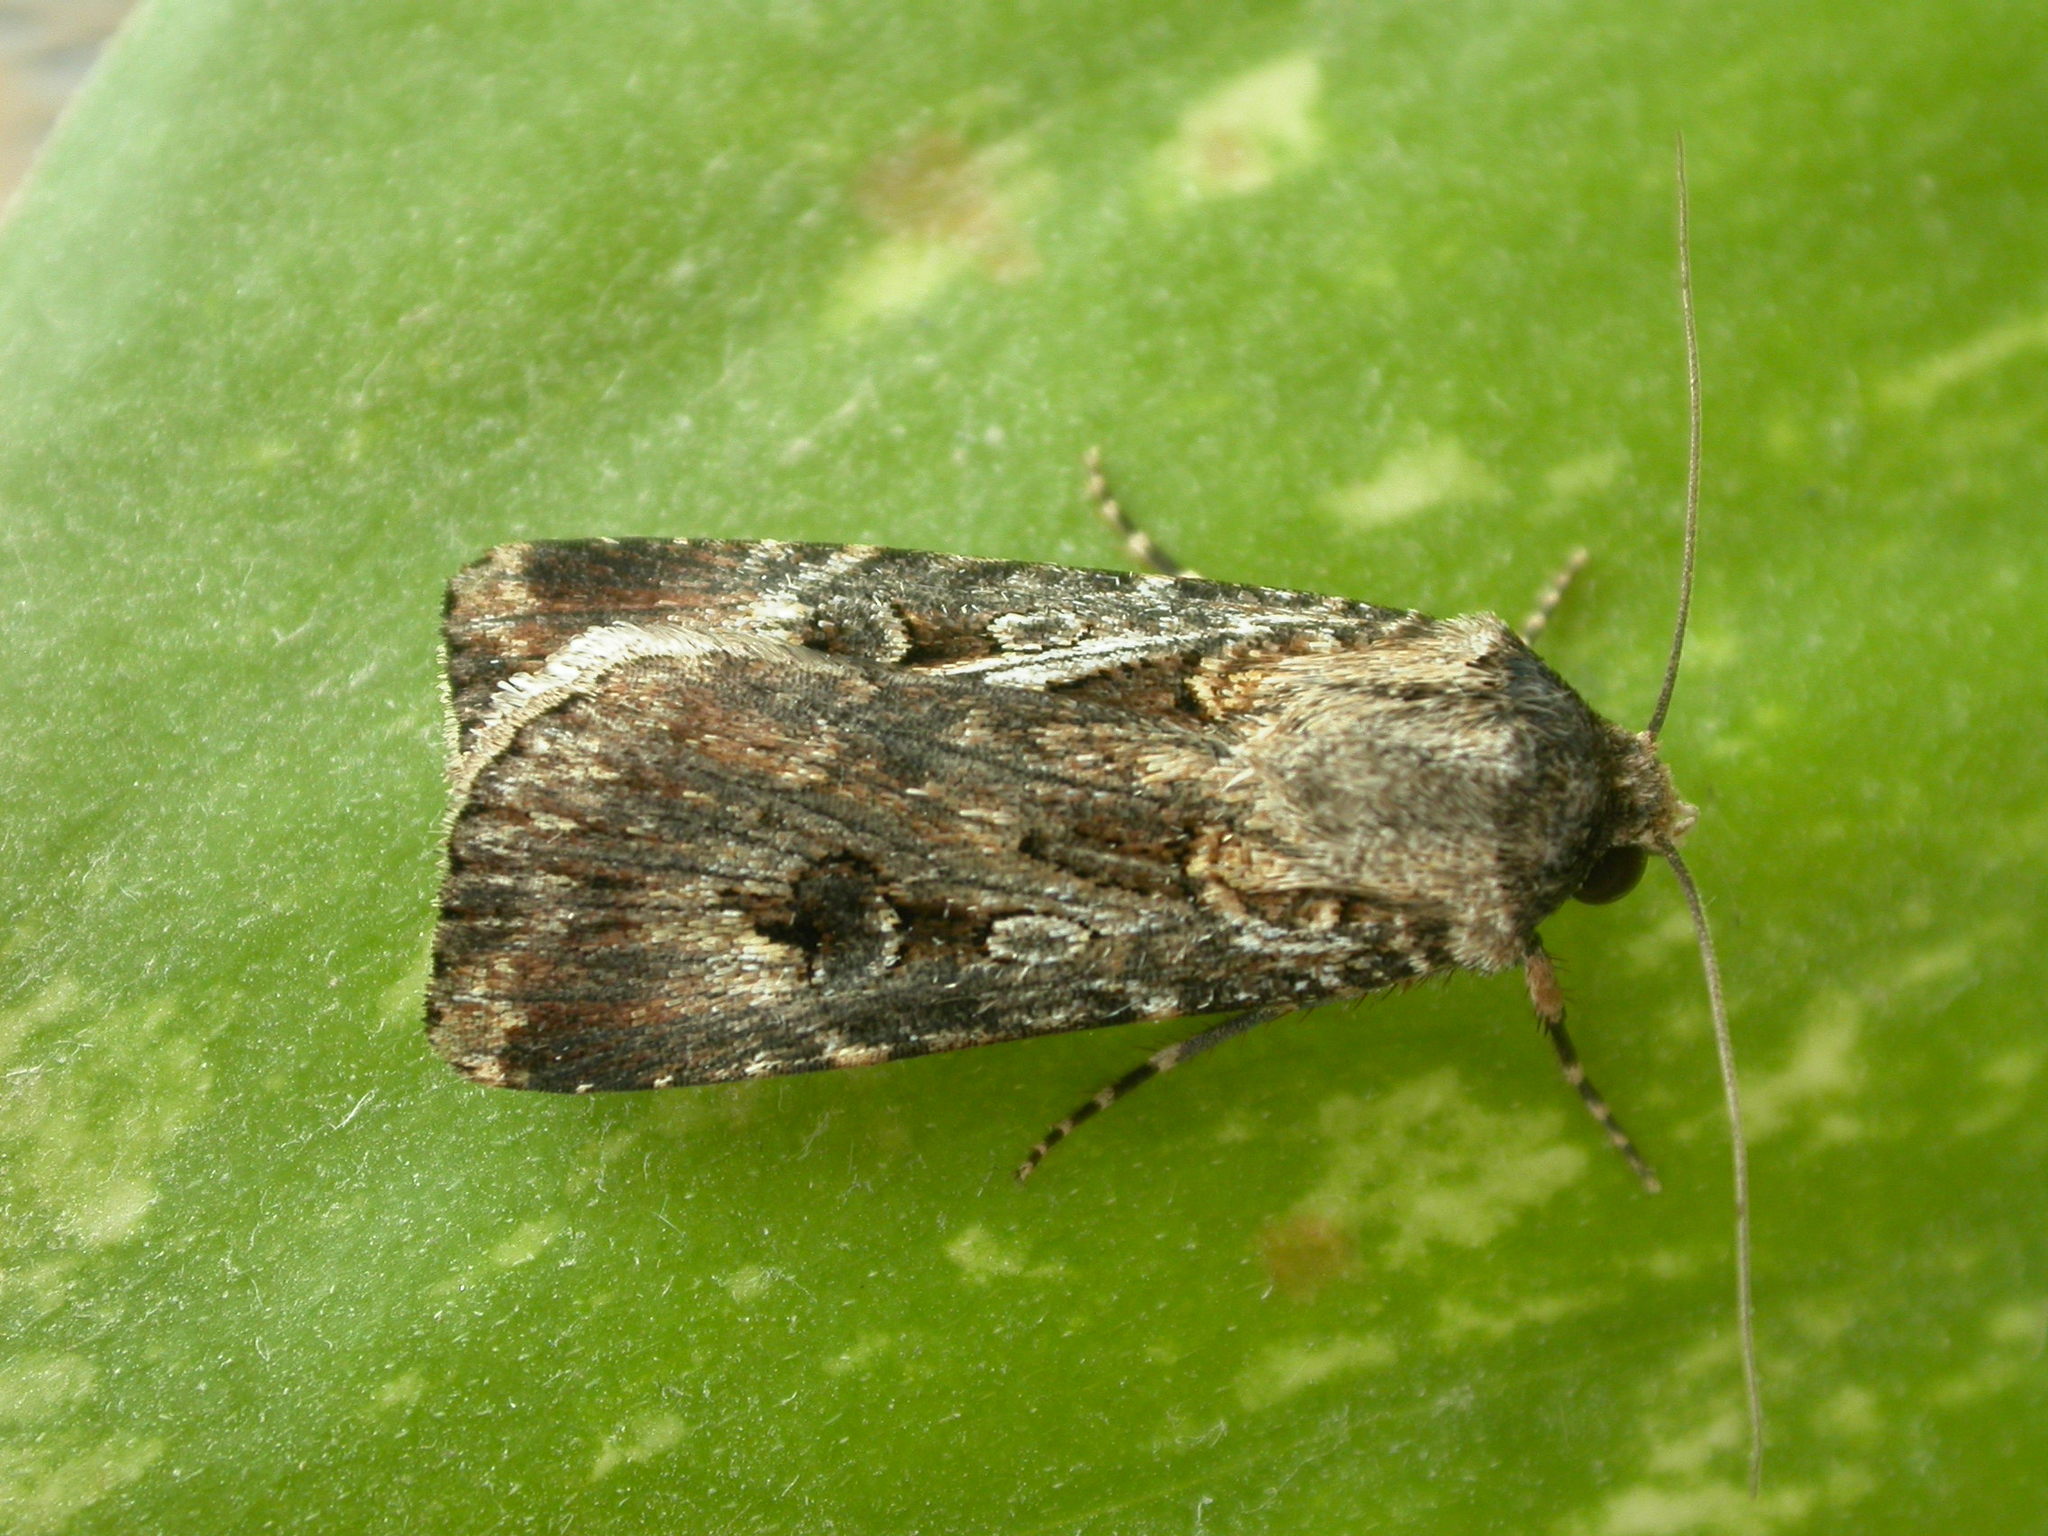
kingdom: Animalia
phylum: Arthropoda
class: Insecta
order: Lepidoptera
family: Noctuidae
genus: Agrotis
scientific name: Agrotis munda
